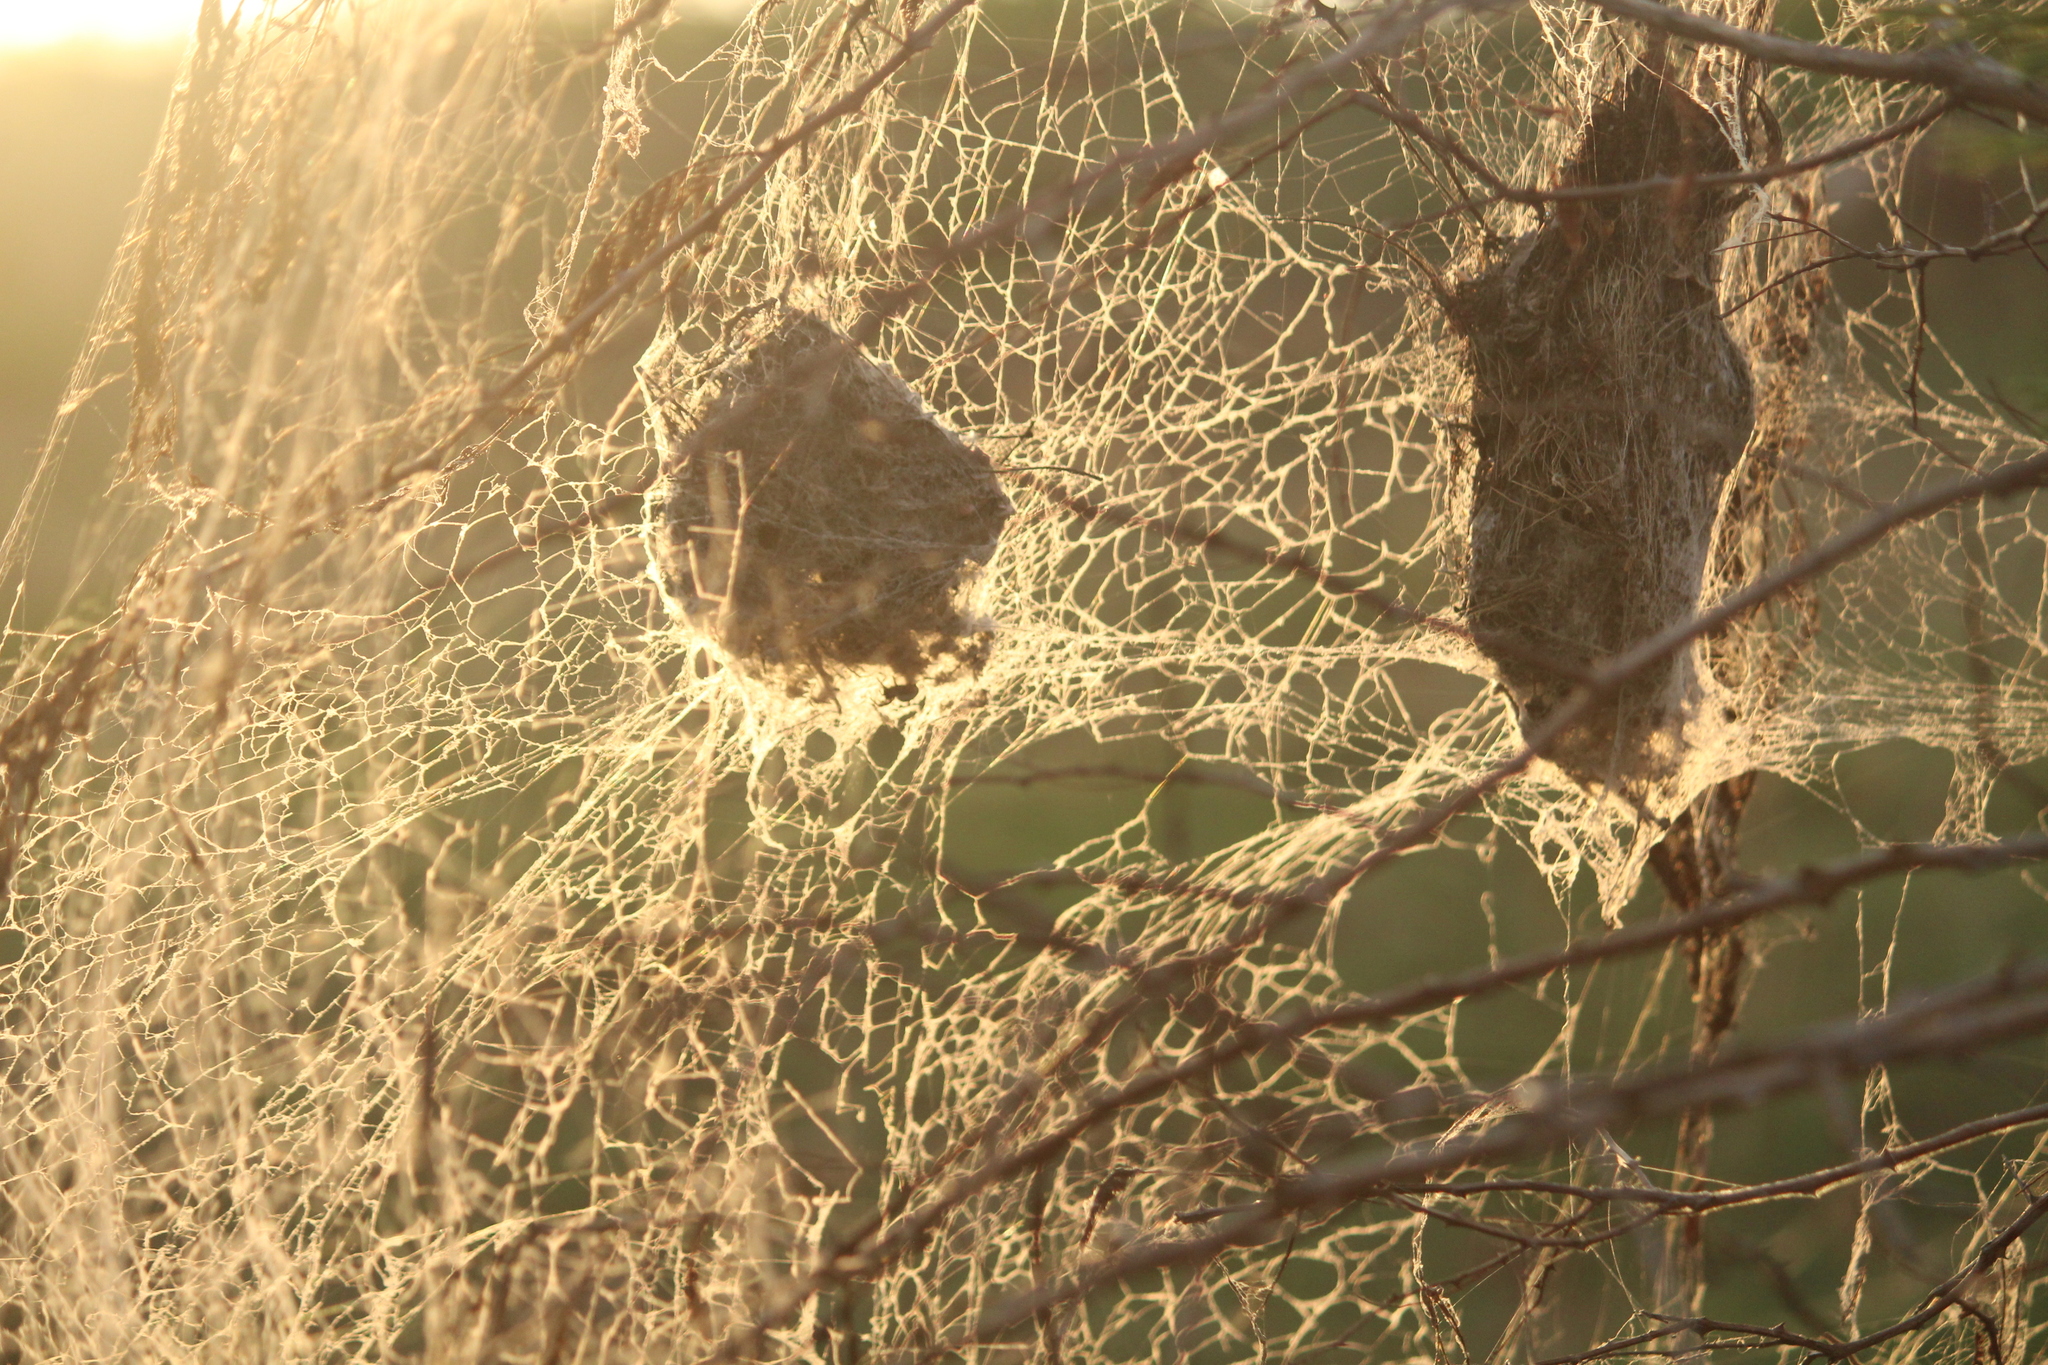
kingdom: Animalia
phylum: Arthropoda
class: Arachnida
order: Araneae
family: Eresidae
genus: Stegodyphus
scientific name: Stegodyphus sarasinorum
